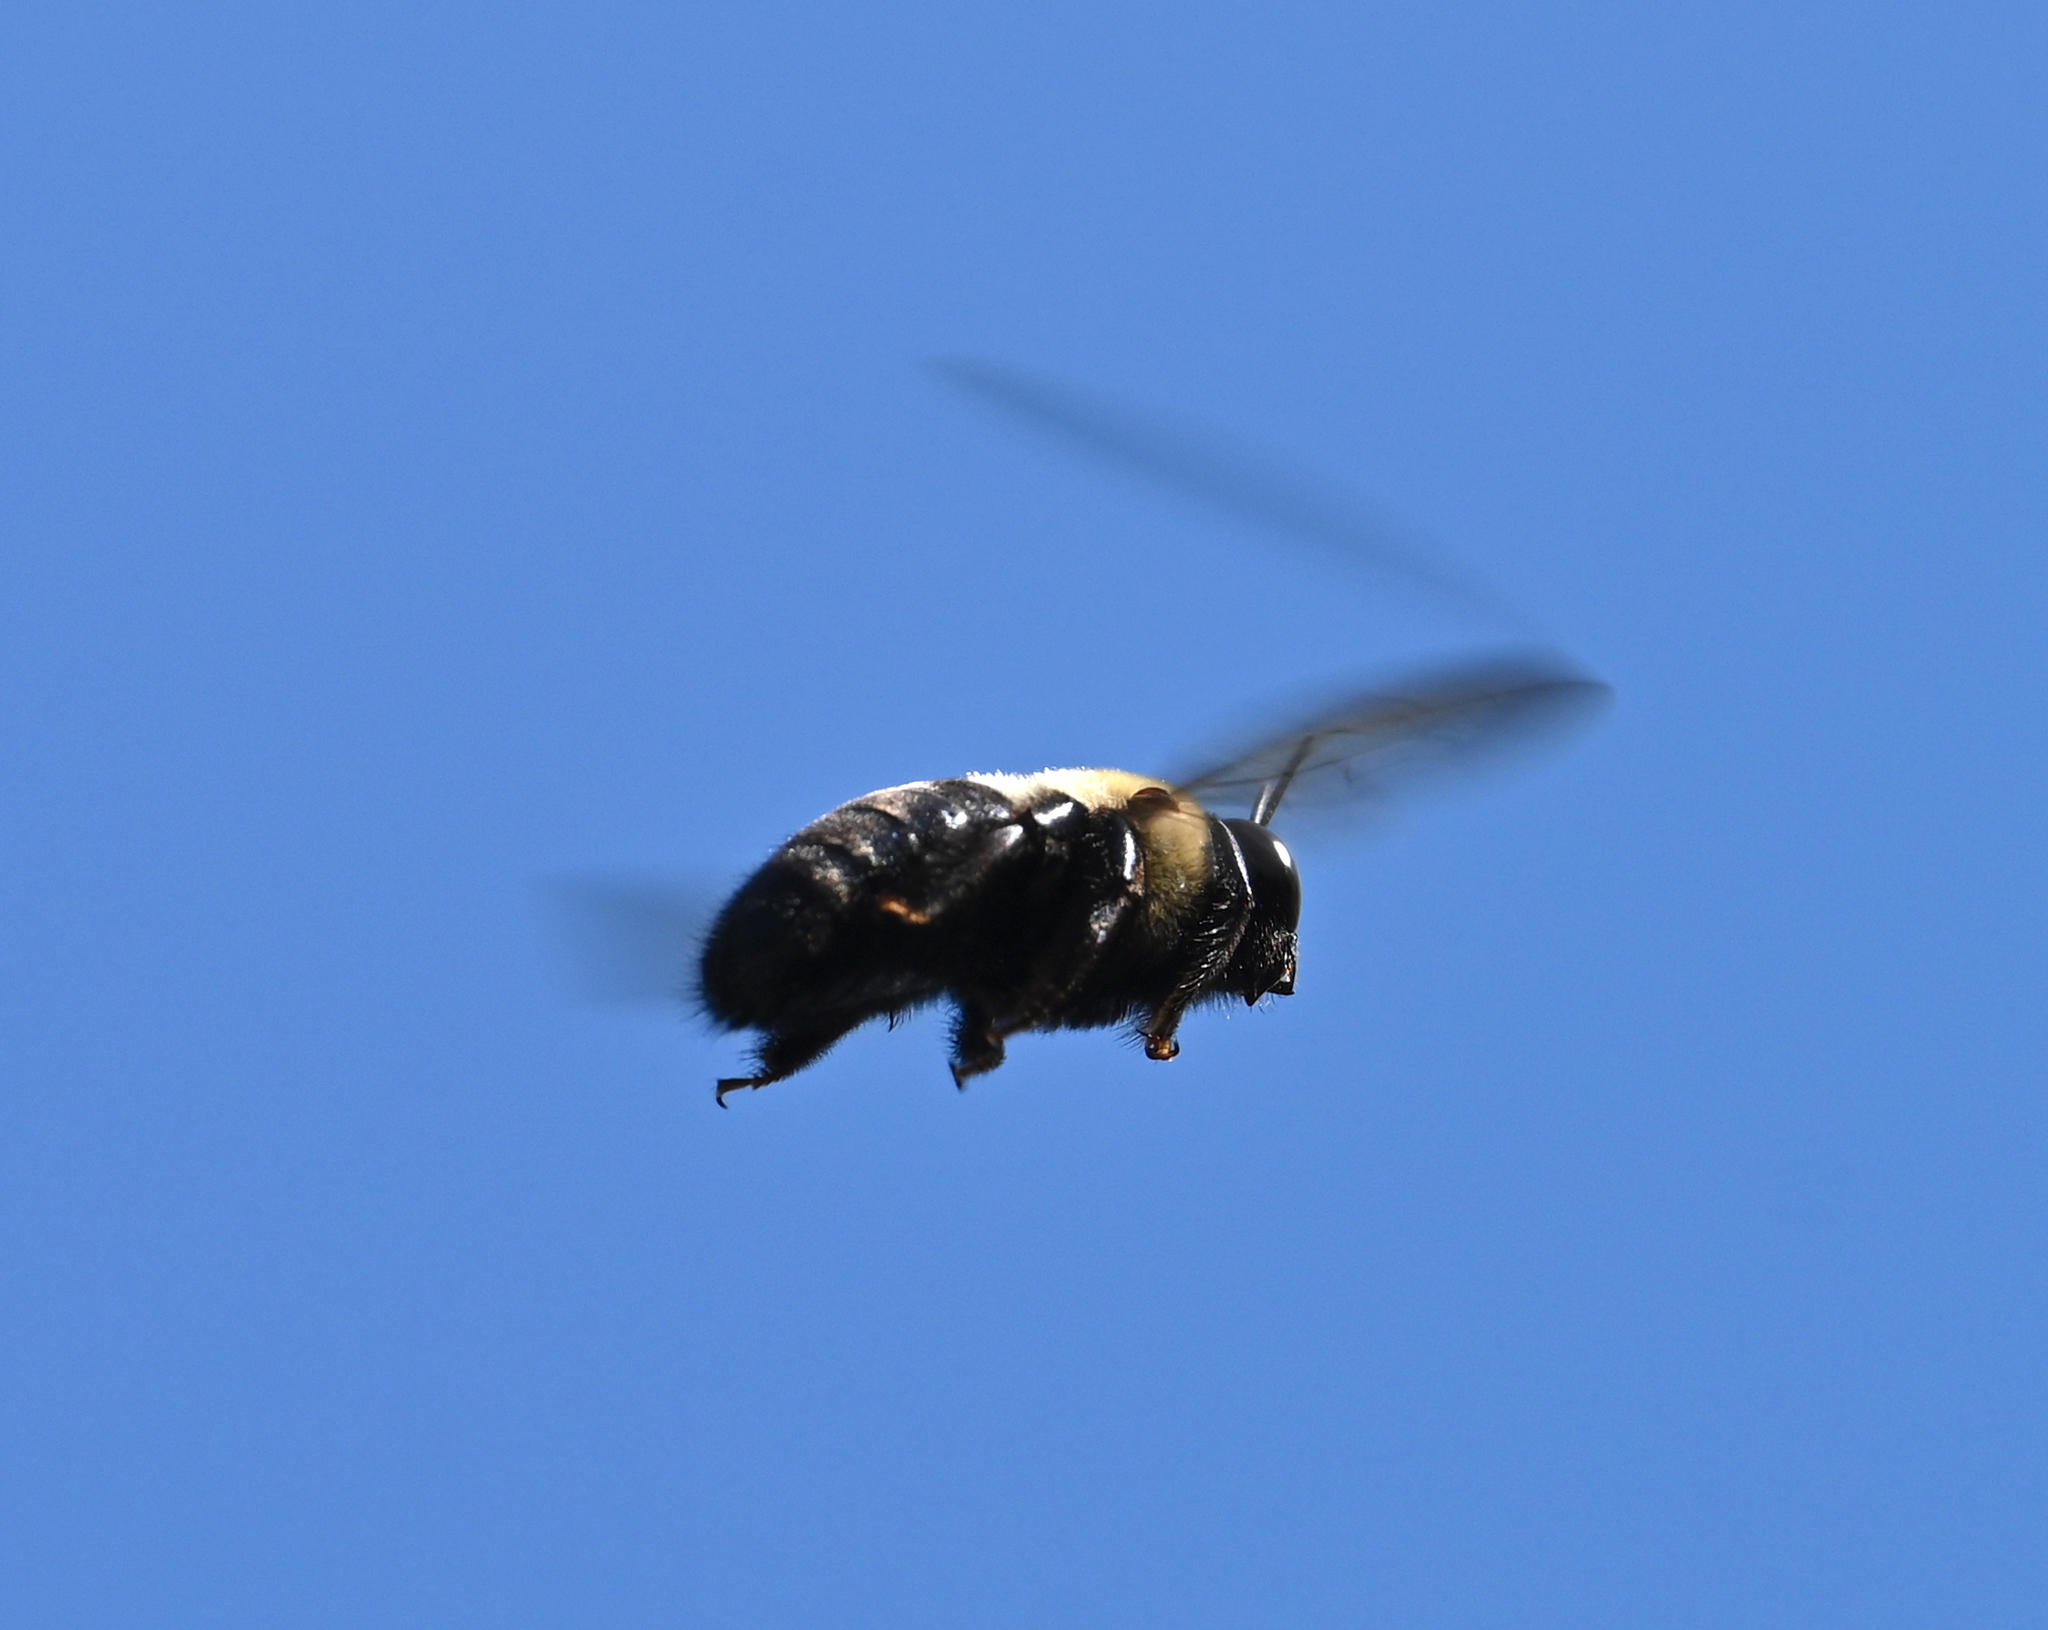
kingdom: Animalia
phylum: Arthropoda
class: Insecta
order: Hymenoptera
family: Apidae
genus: Xylocopa
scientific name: Xylocopa virginica
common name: Carpenter bee
